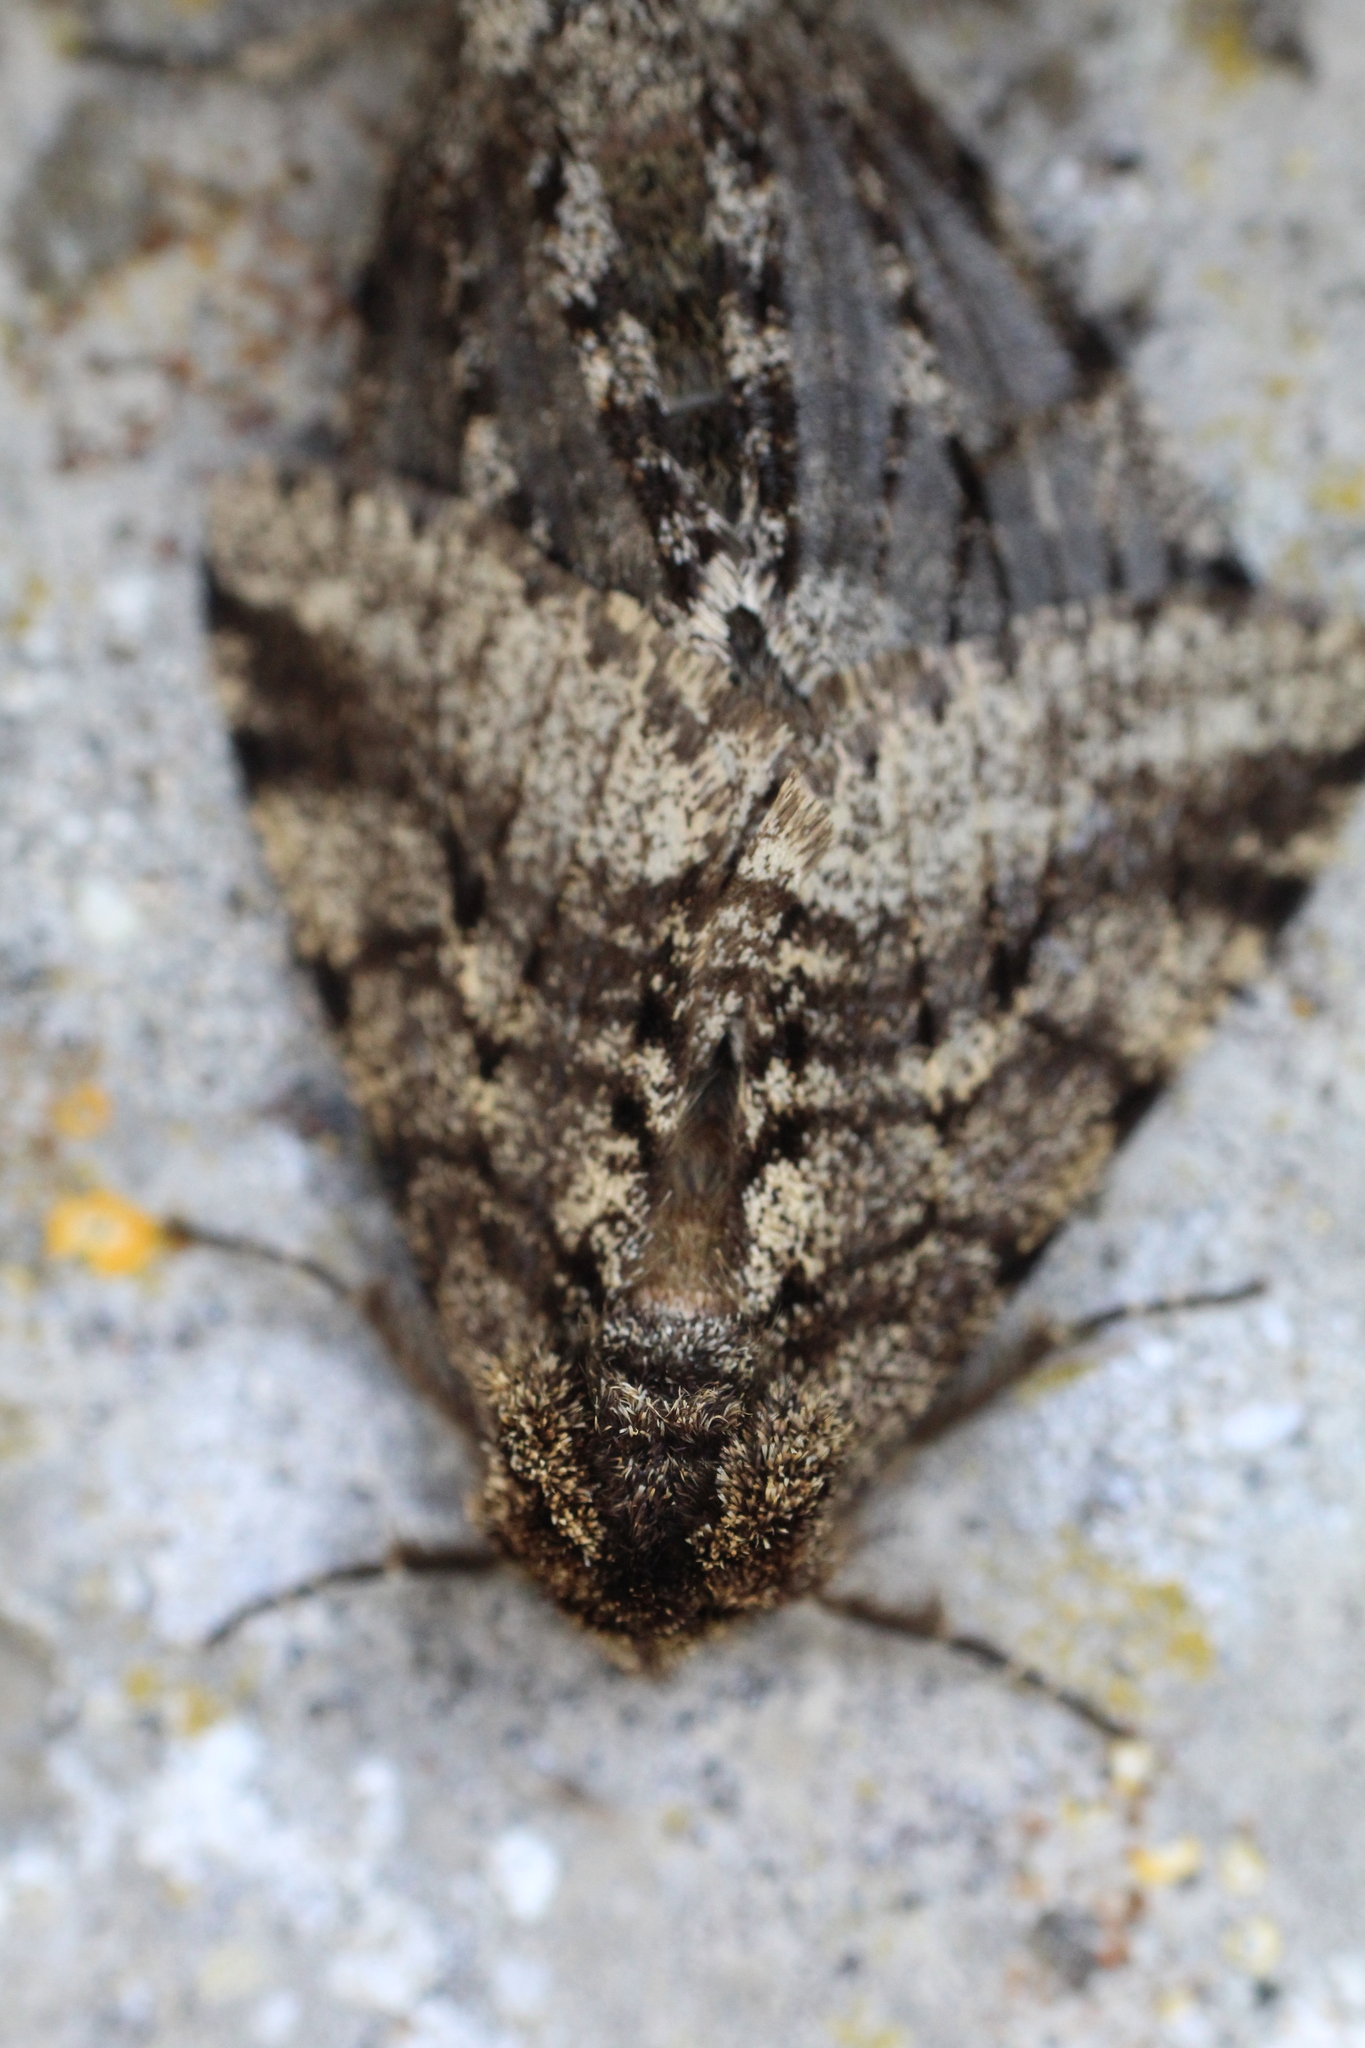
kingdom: Animalia
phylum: Arthropoda
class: Insecta
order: Lepidoptera
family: Geometridae
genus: Lycia
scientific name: Lycia hirtaria
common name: Brindled beauty
